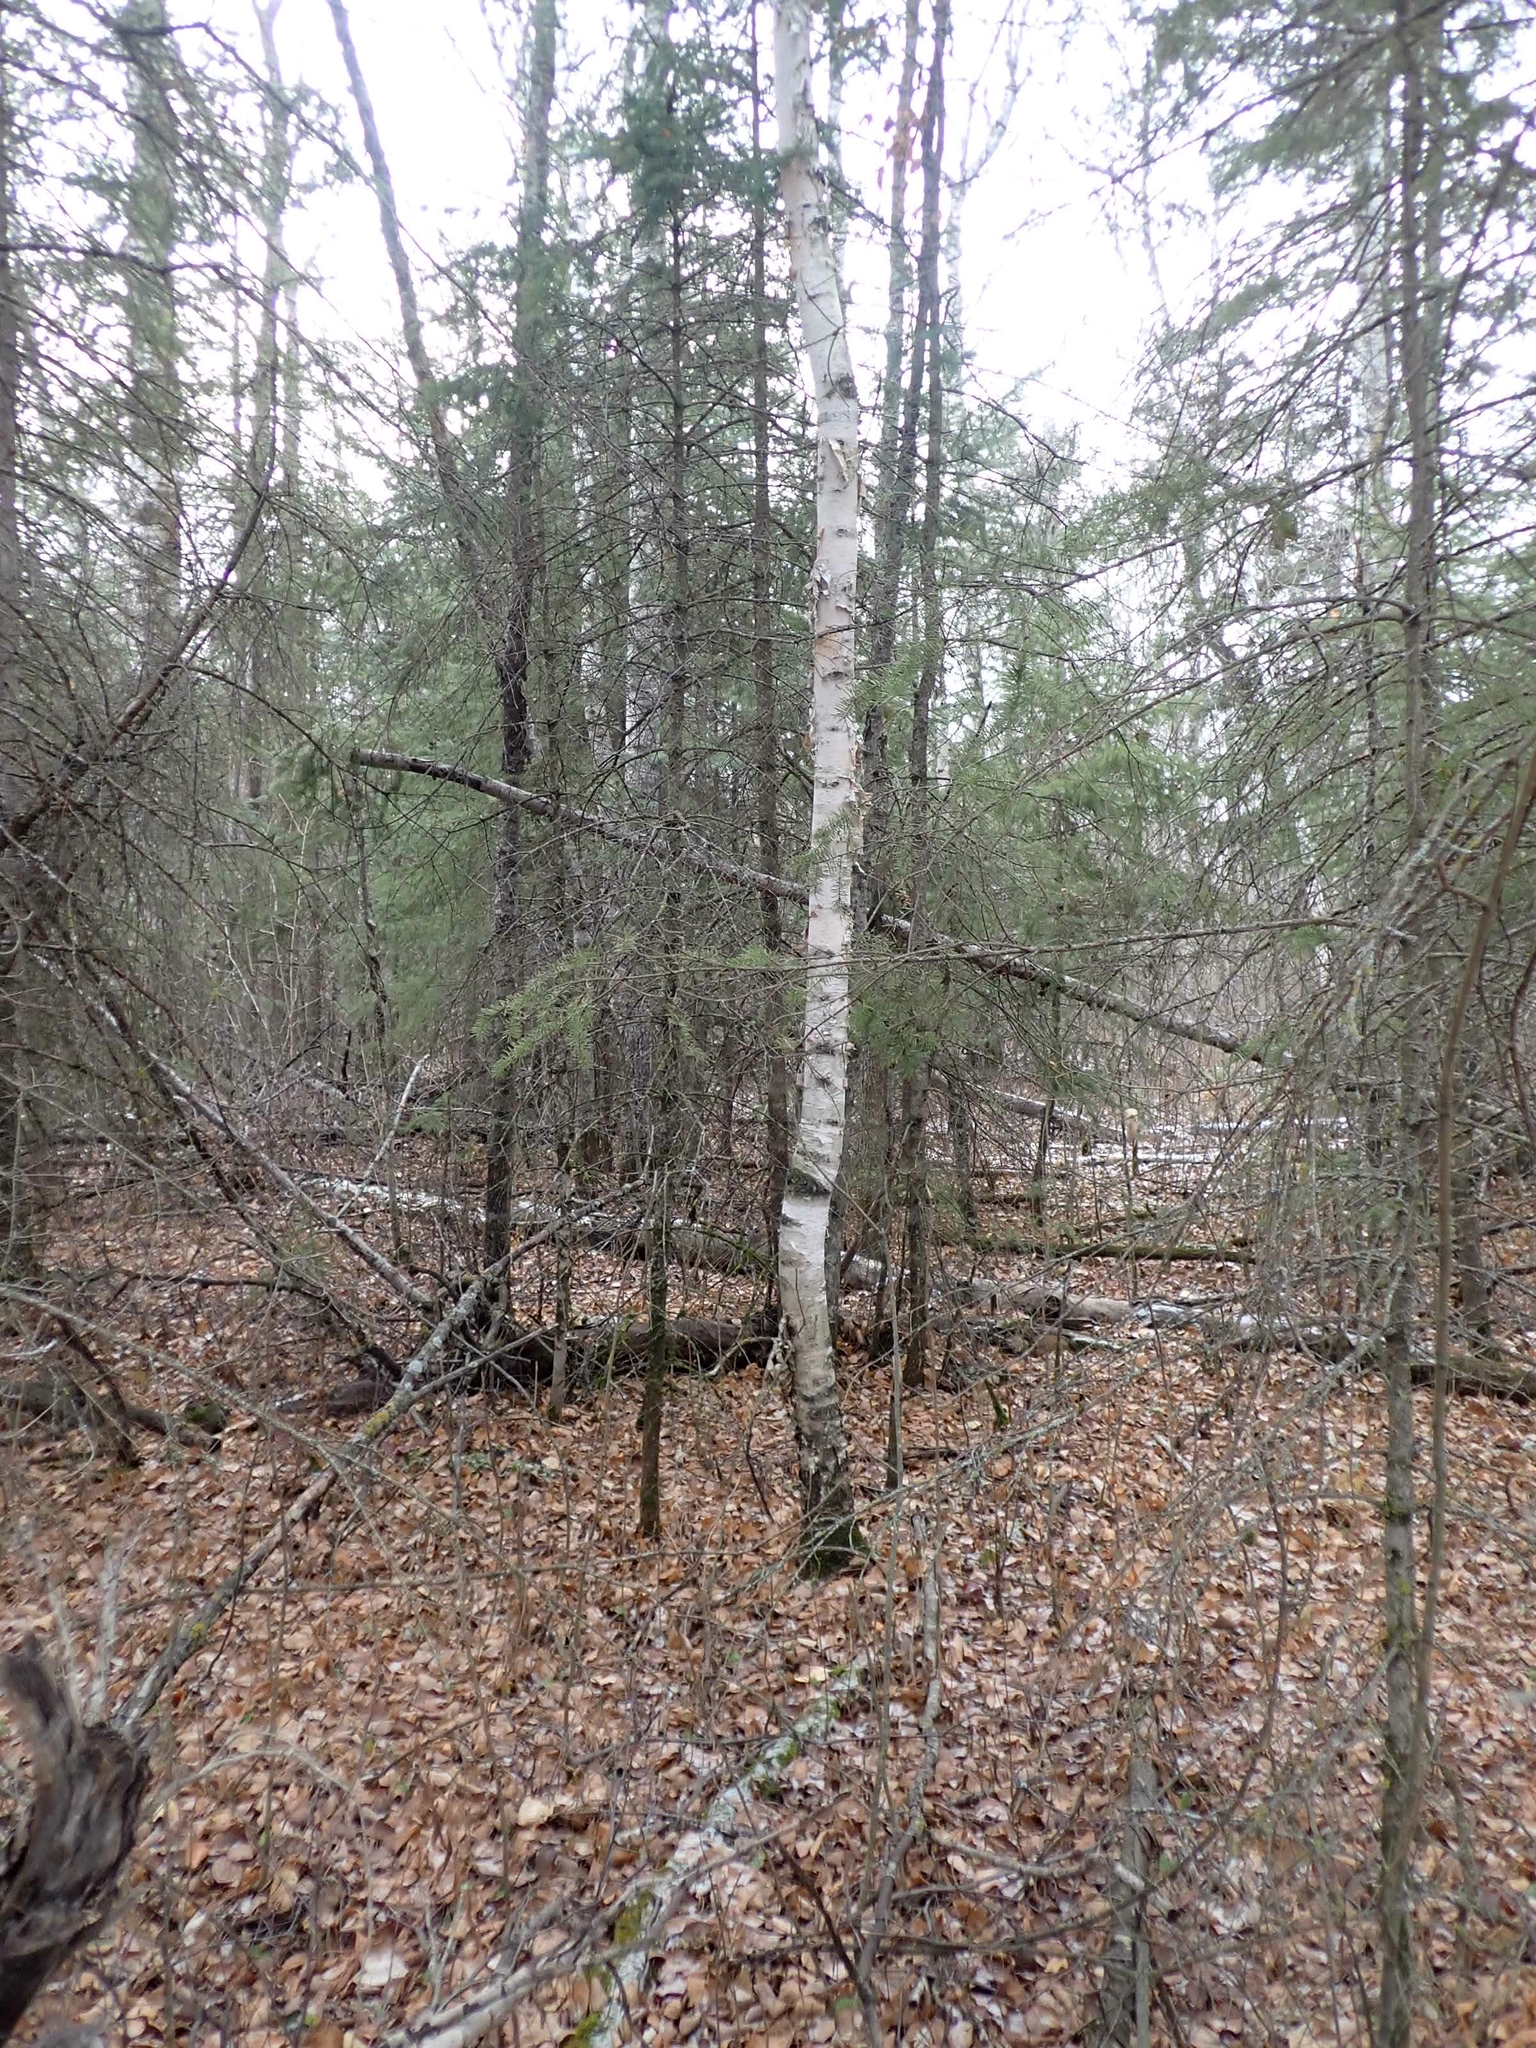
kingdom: Plantae
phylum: Tracheophyta
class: Magnoliopsida
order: Fagales
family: Betulaceae
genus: Betula
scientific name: Betula papyrifera
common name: Paper birch
